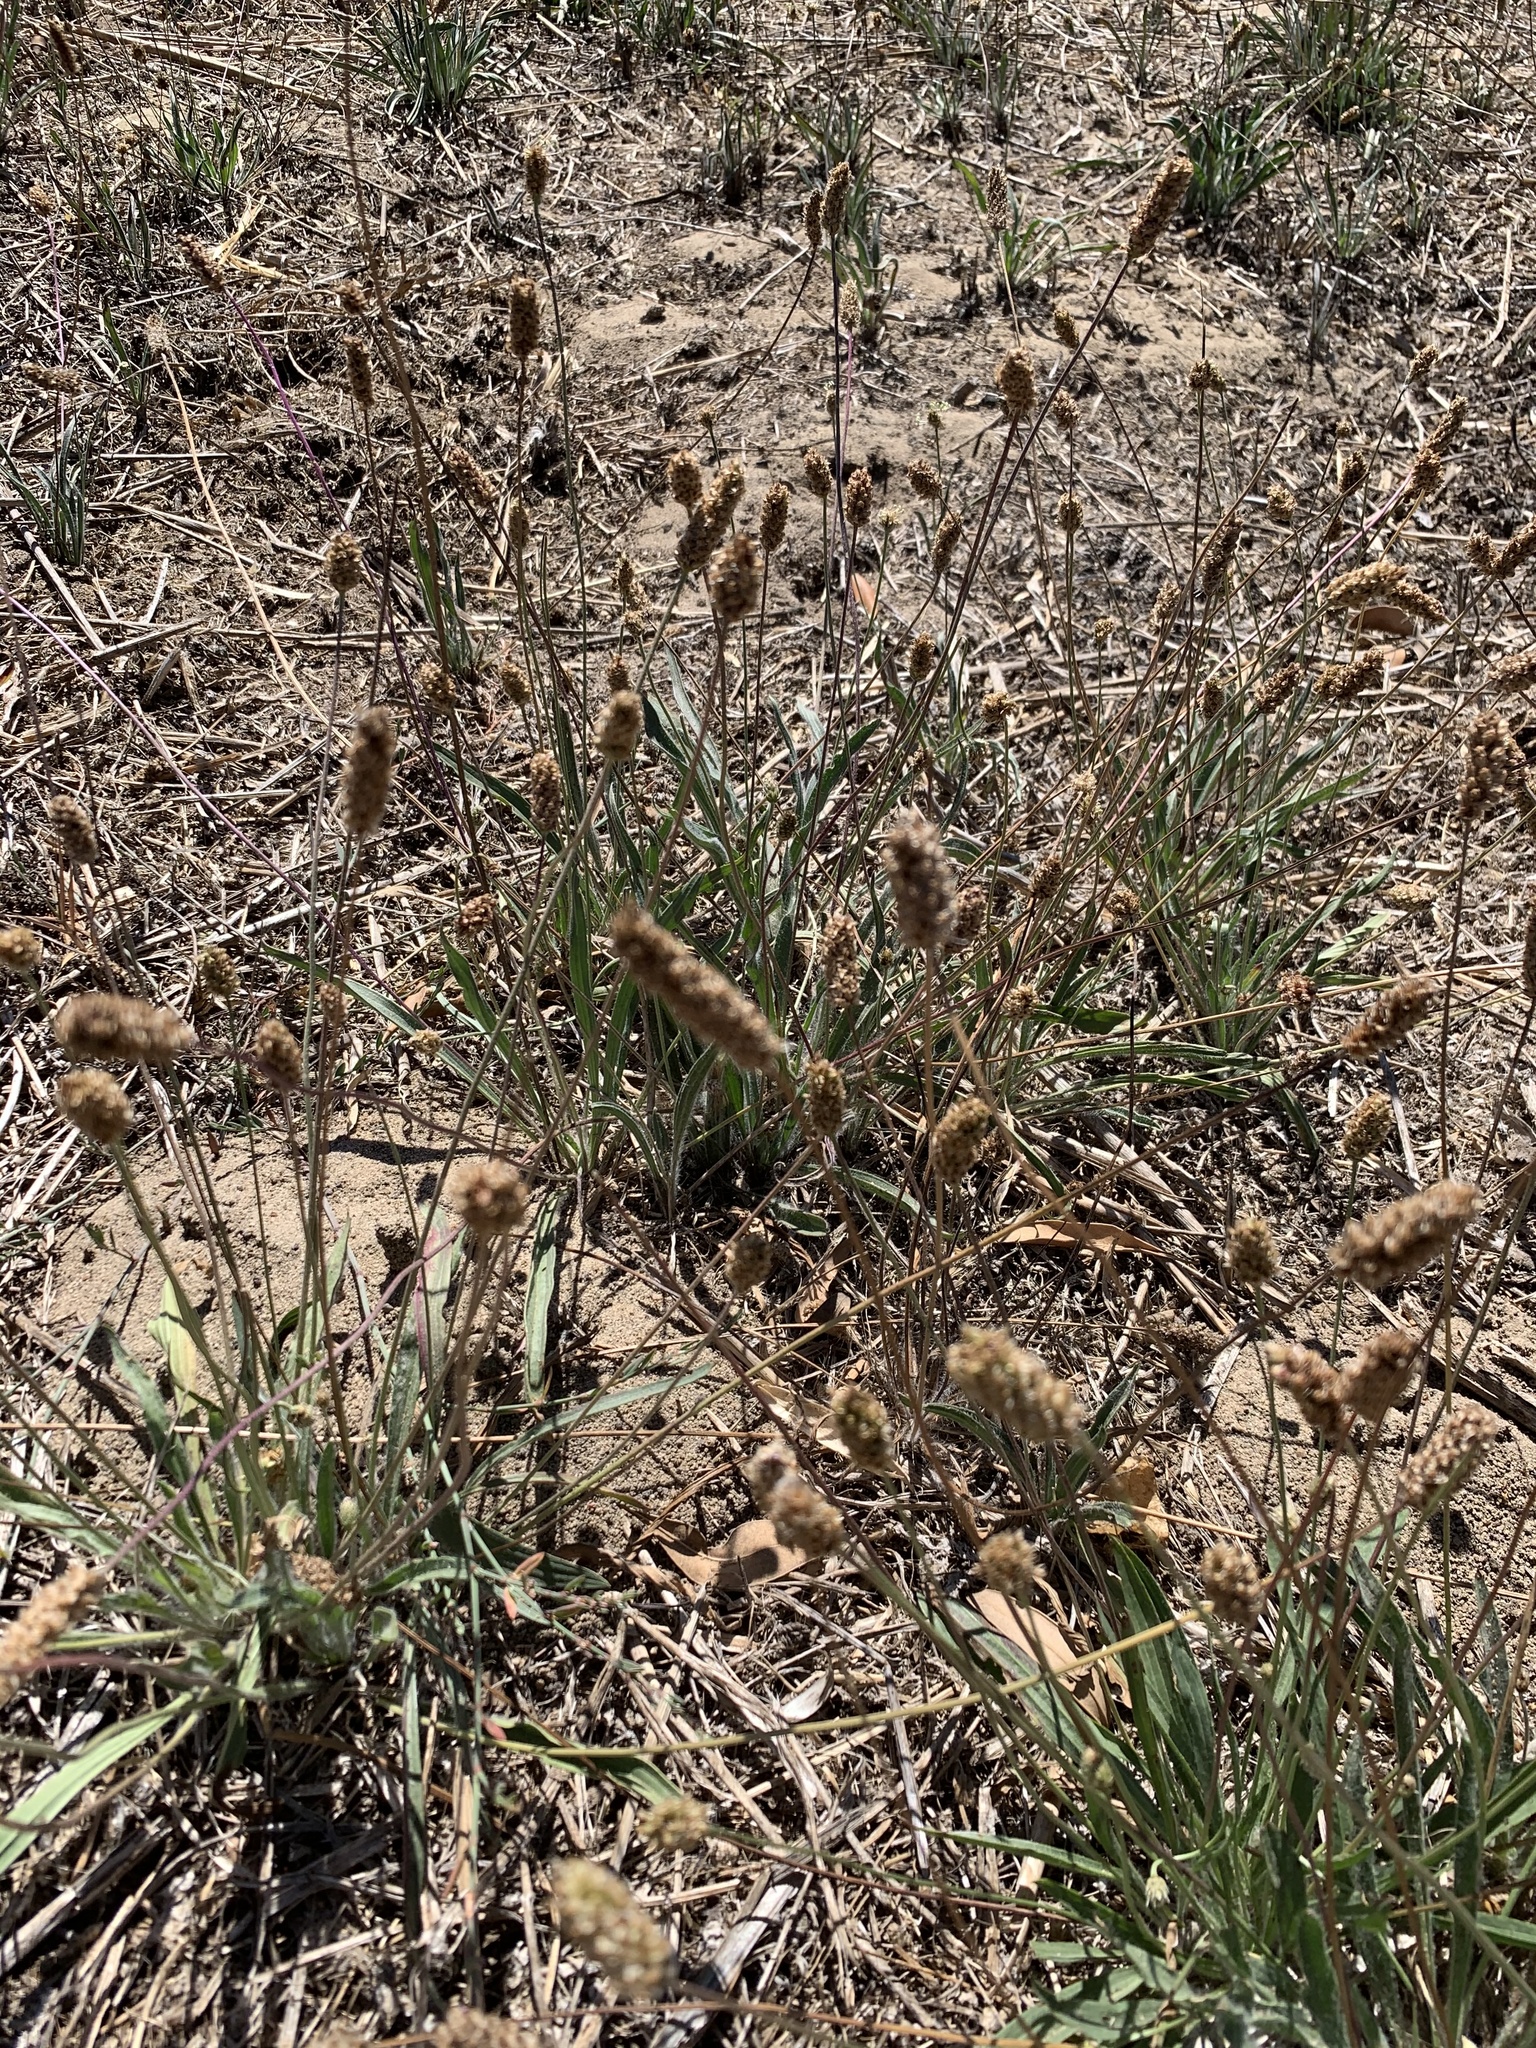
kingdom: Plantae
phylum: Tracheophyta
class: Magnoliopsida
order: Lamiales
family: Plantaginaceae
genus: Plantago
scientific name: Plantago lanceolata
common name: Ribwort plantain
